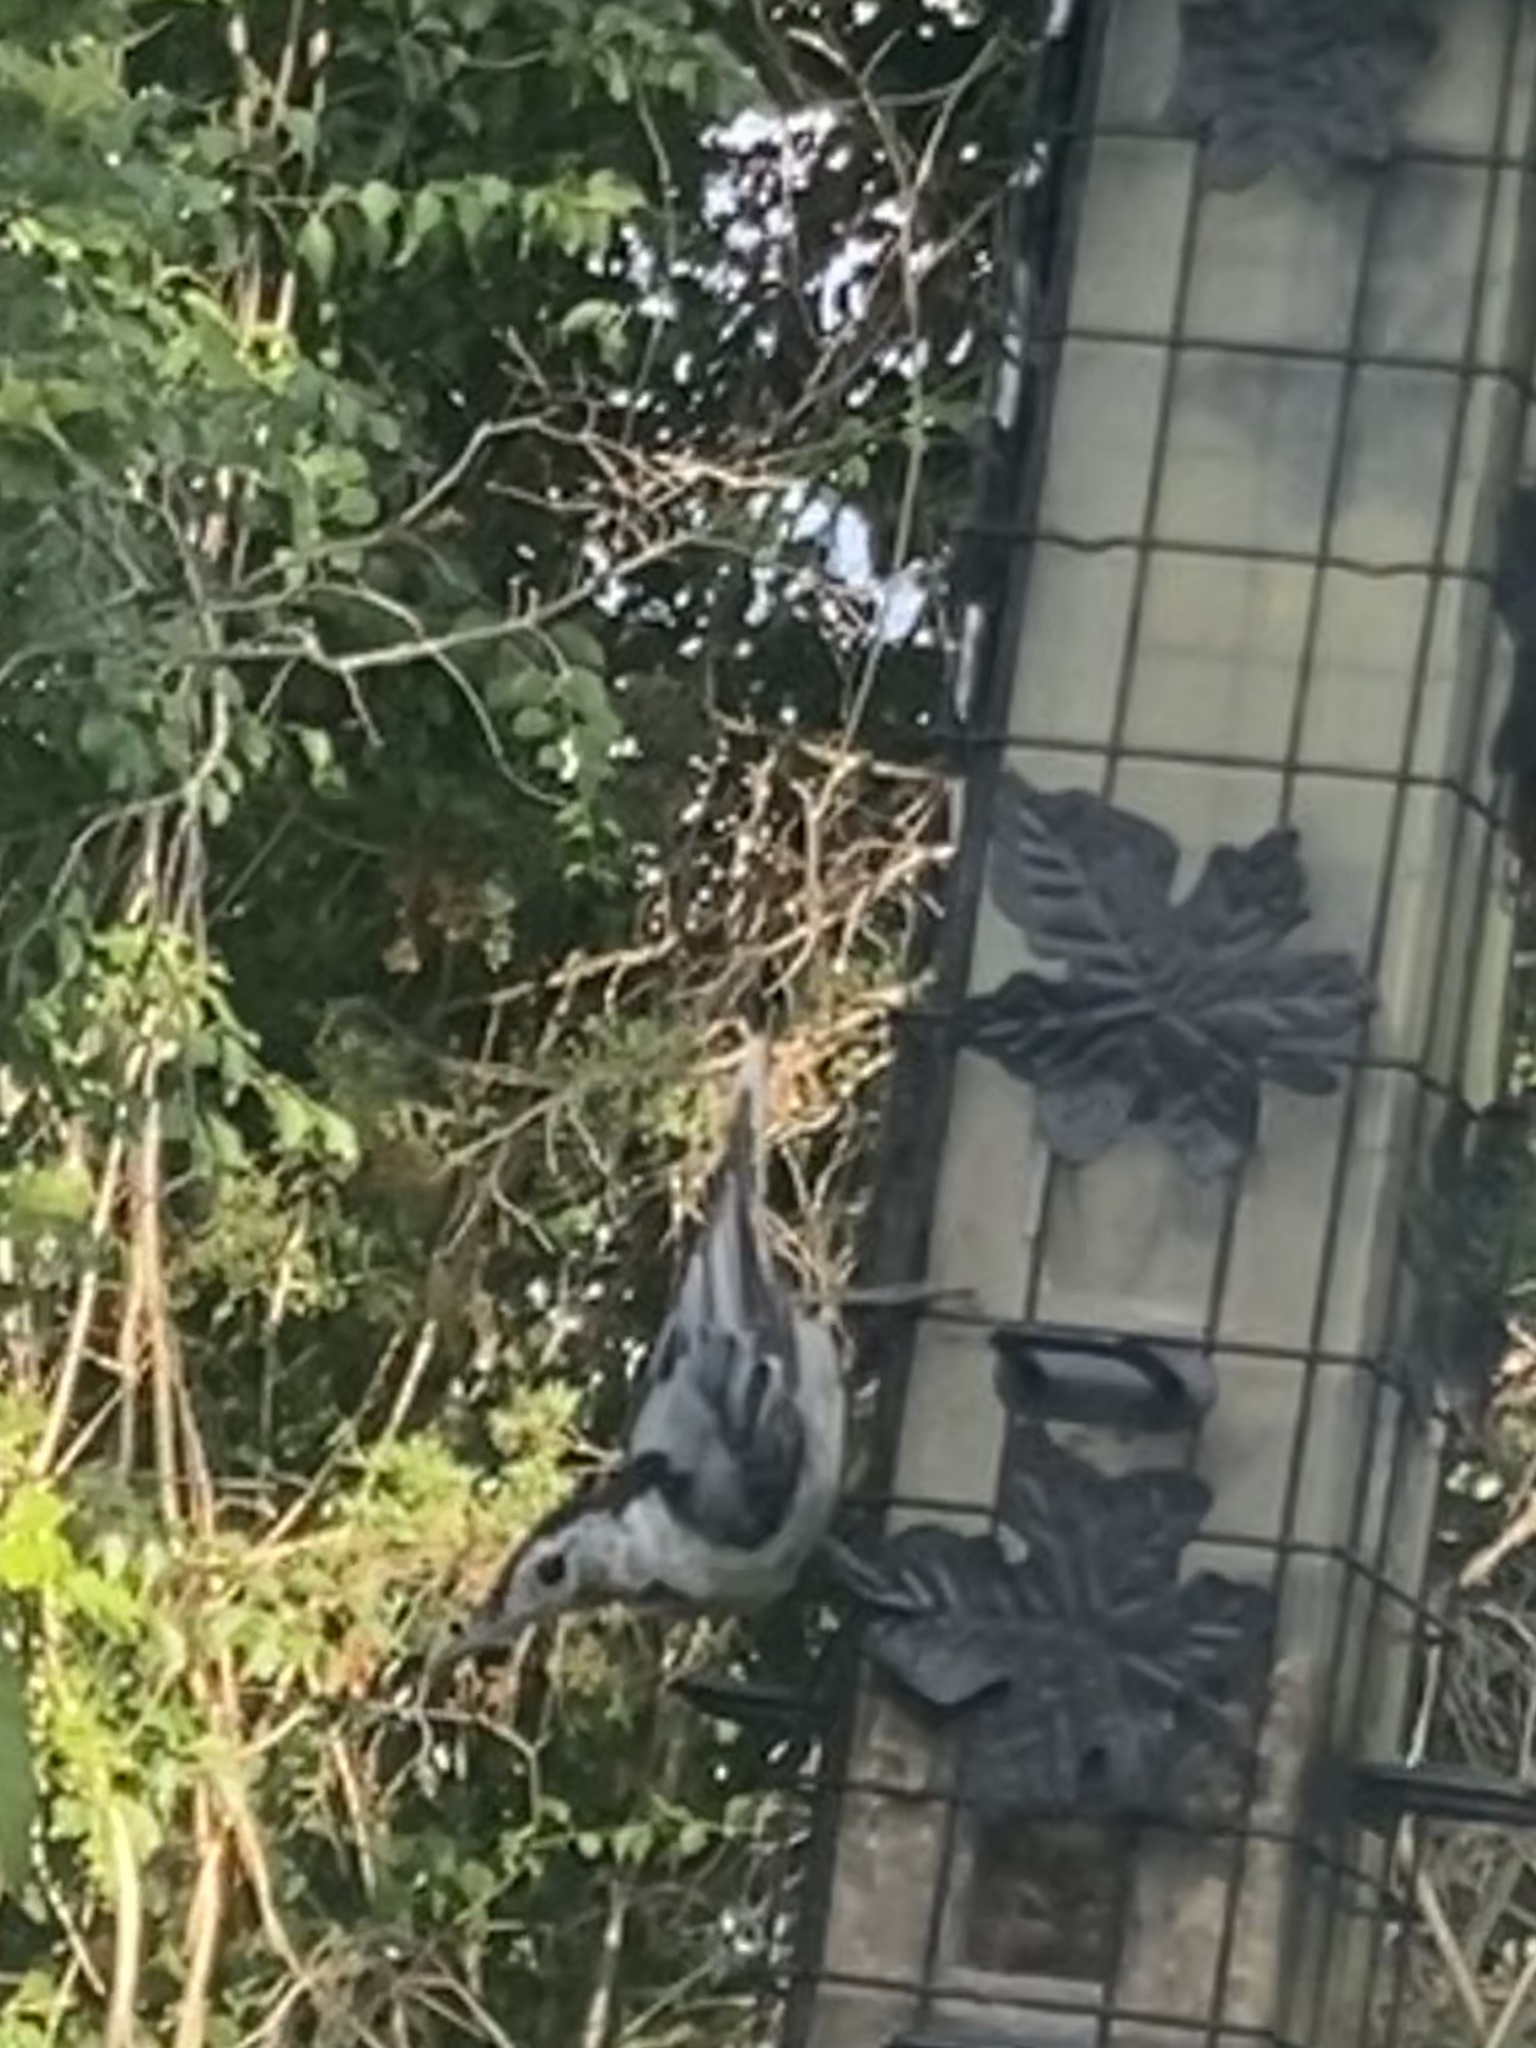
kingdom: Animalia
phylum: Chordata
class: Aves
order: Passeriformes
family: Sittidae
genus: Sitta
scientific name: Sitta carolinensis
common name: White-breasted nuthatch
